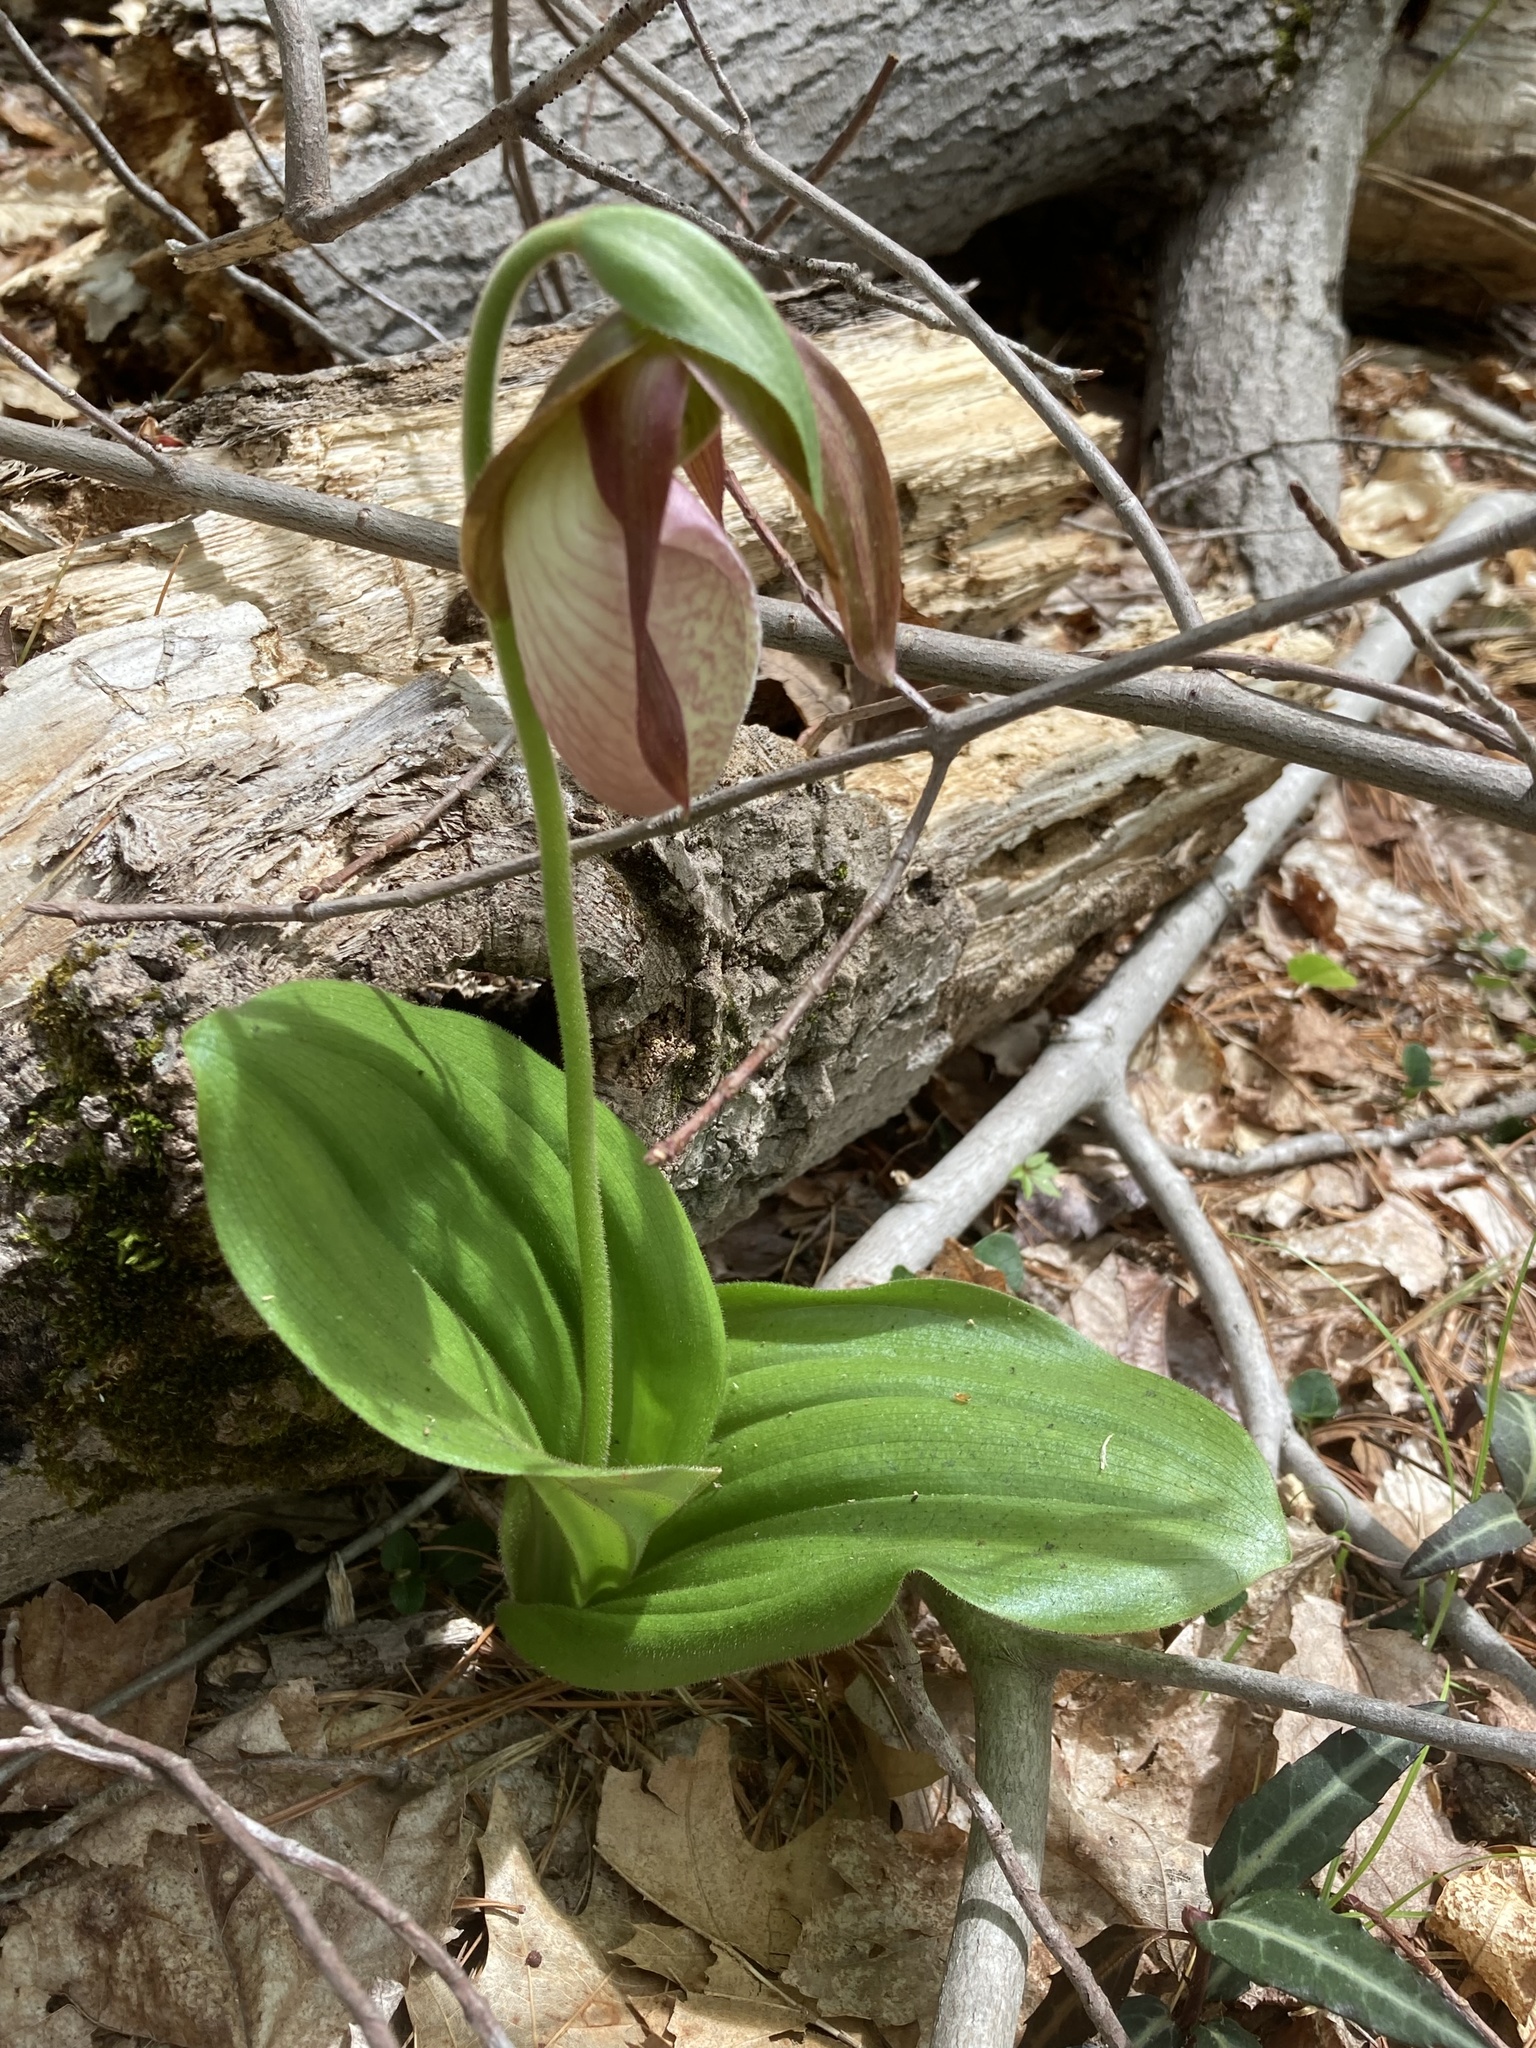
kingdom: Plantae
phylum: Tracheophyta
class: Liliopsida
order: Asparagales
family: Orchidaceae
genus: Cypripedium
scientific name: Cypripedium acaule
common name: Pink lady's-slipper
